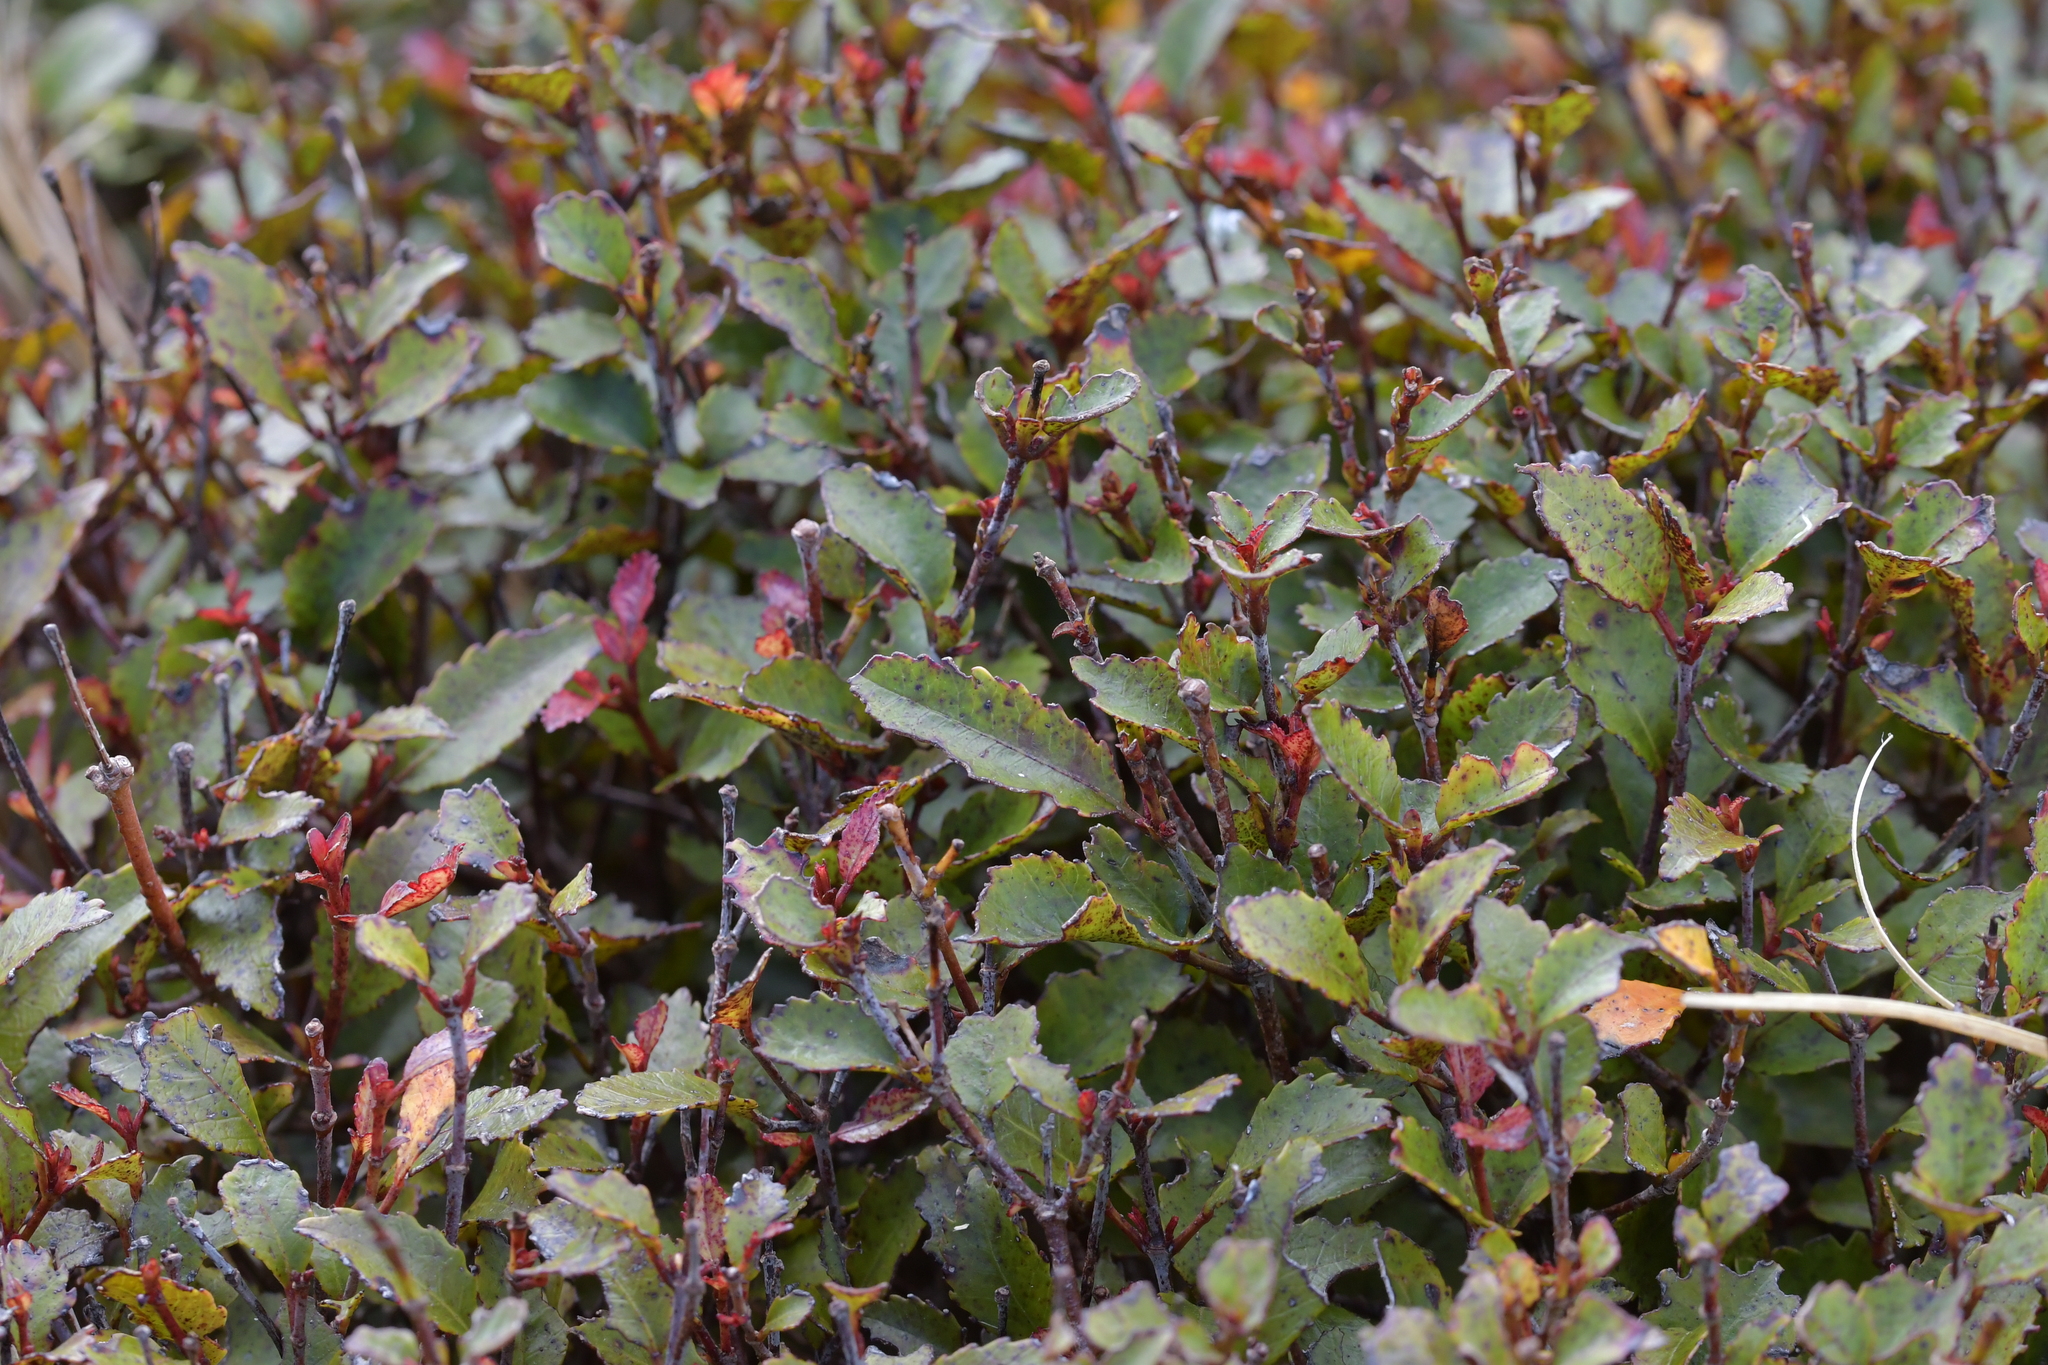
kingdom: Plantae
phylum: Tracheophyta
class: Magnoliopsida
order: Oxalidales
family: Cunoniaceae
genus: Pterophylla
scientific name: Pterophylla racemosa
